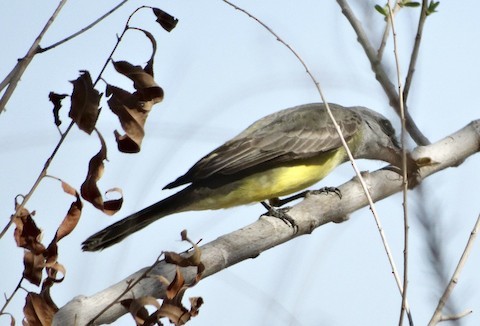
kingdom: Animalia
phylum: Chordata
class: Aves
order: Passeriformes
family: Tyrannidae
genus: Tyrannus
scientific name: Tyrannus verticalis
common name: Western kingbird
